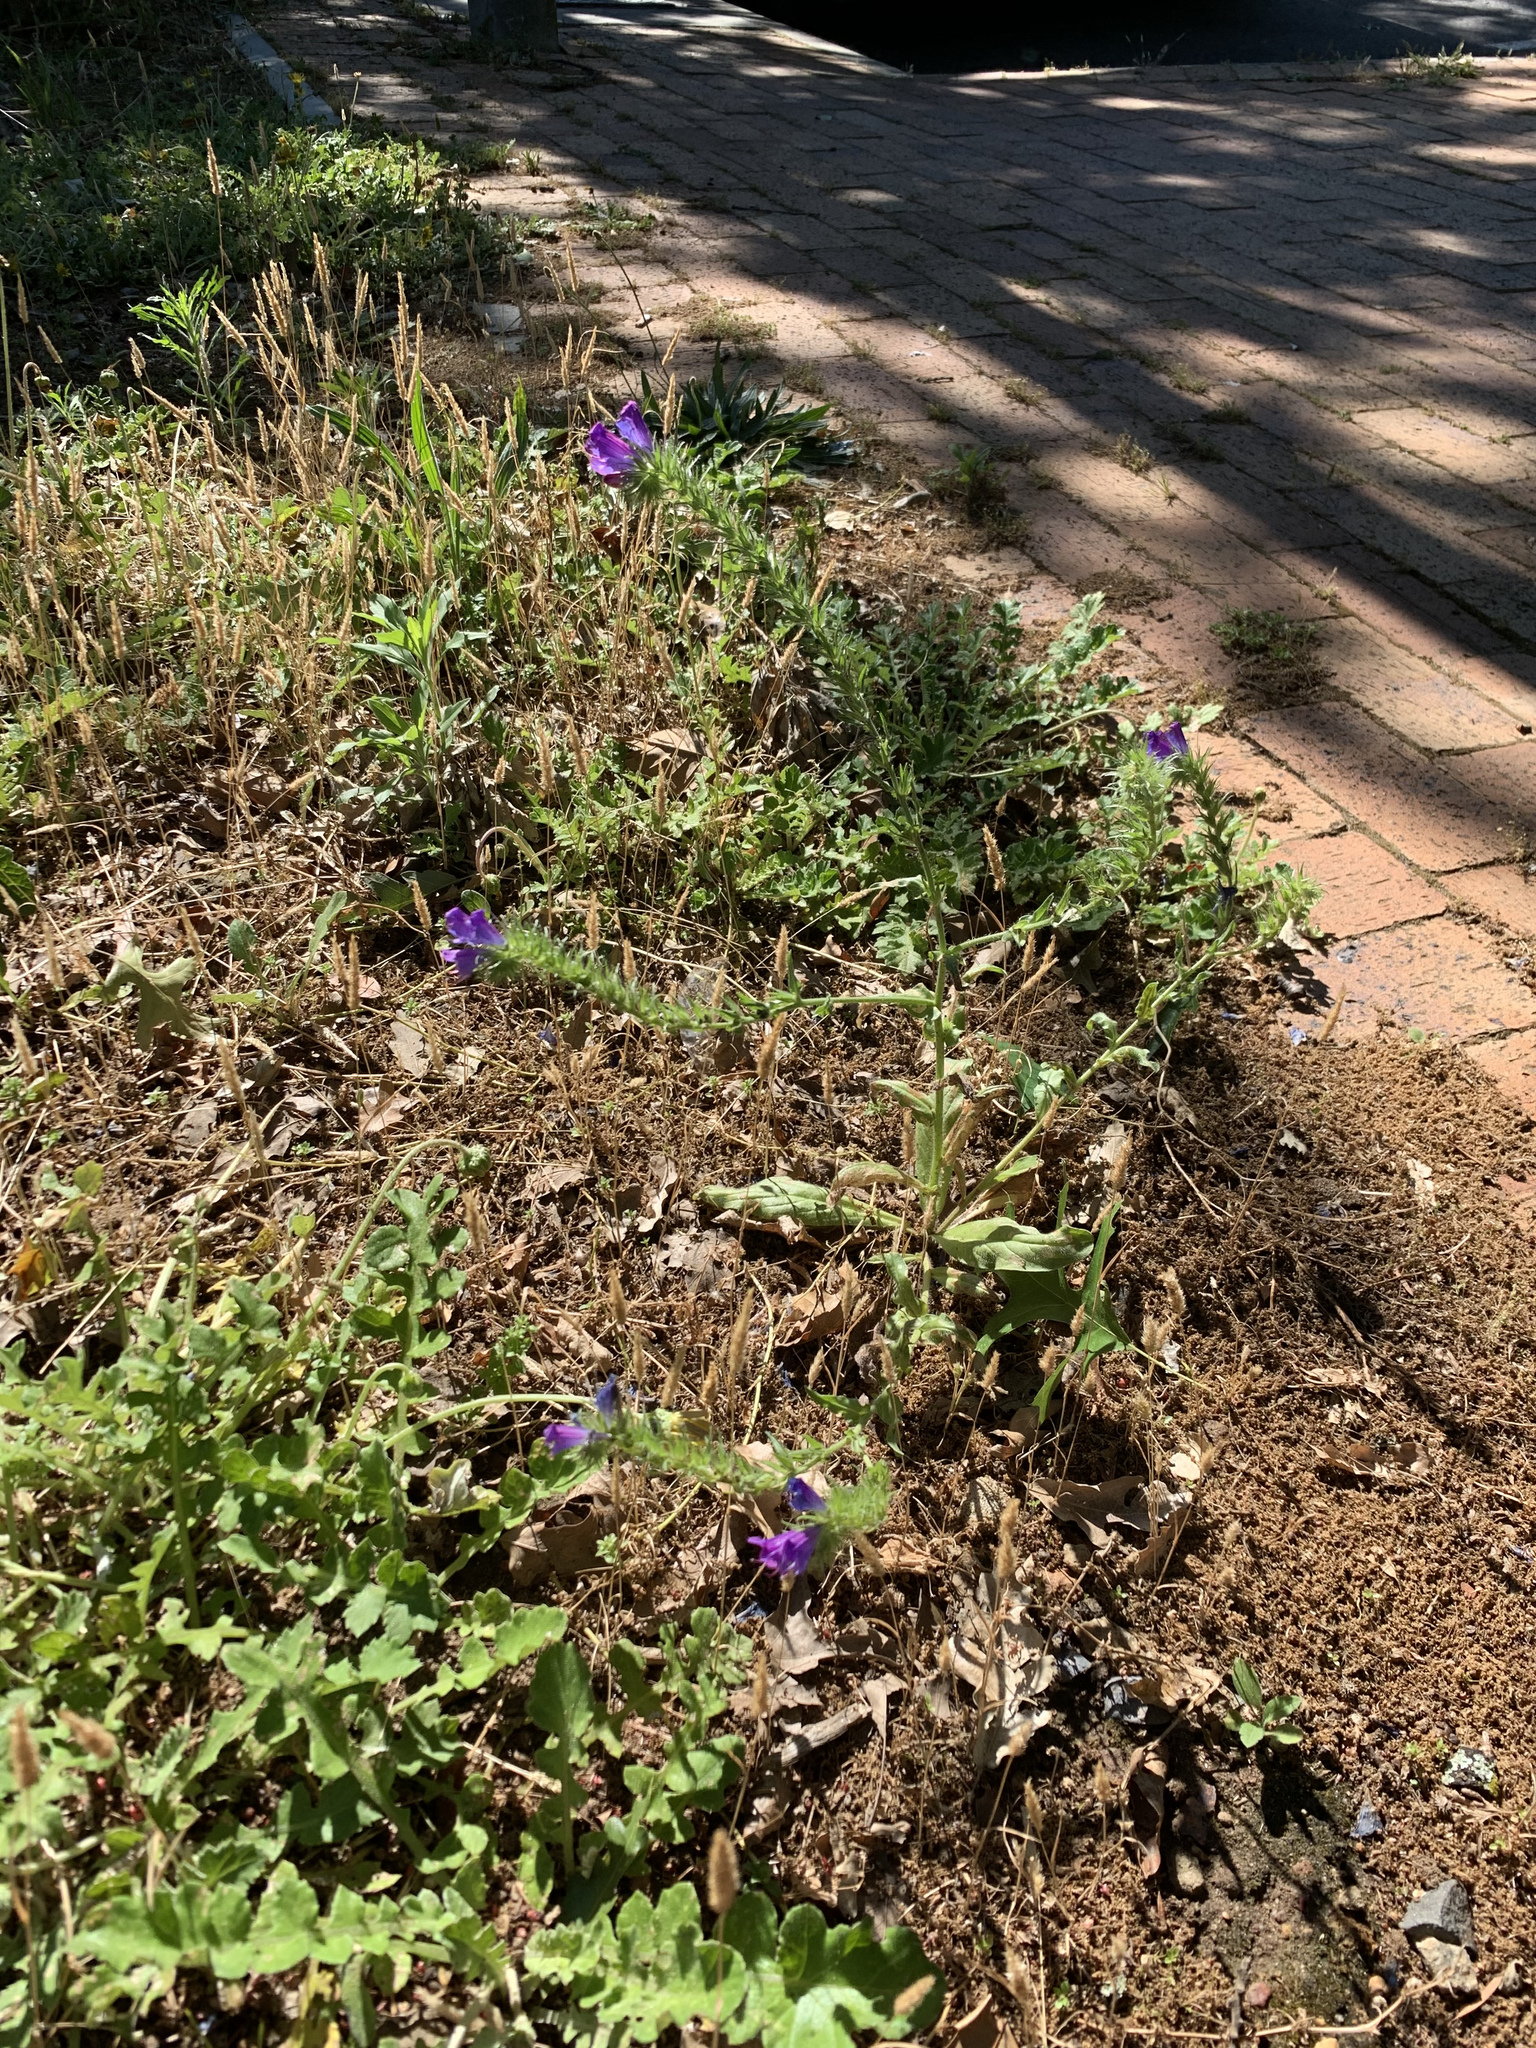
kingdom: Plantae
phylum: Tracheophyta
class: Magnoliopsida
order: Boraginales
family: Boraginaceae
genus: Echium
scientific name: Echium plantagineum
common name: Purple viper's-bugloss
